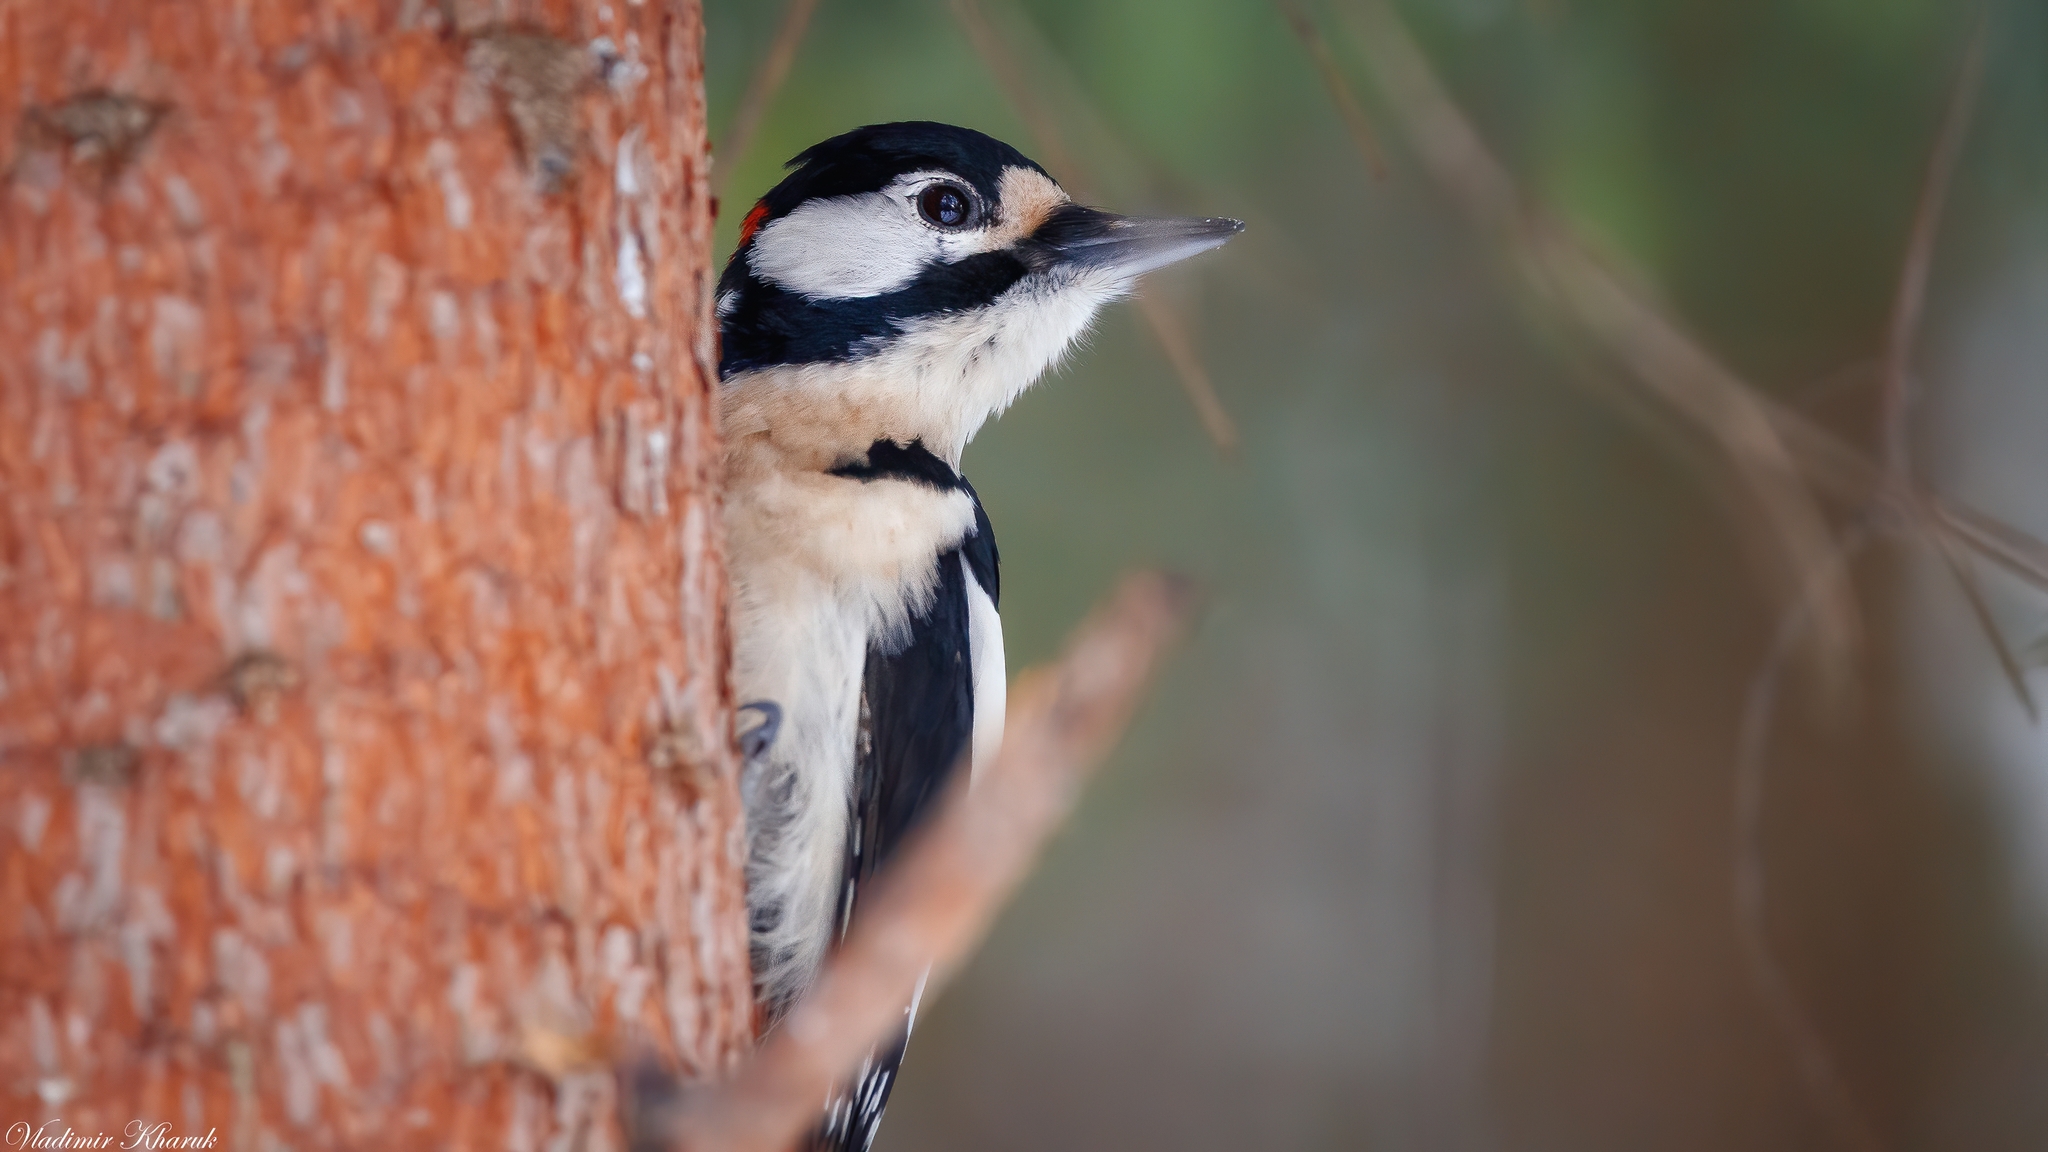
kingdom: Animalia
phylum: Chordata
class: Aves
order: Piciformes
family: Picidae
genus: Dendrocopos
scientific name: Dendrocopos major
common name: Great spotted woodpecker
